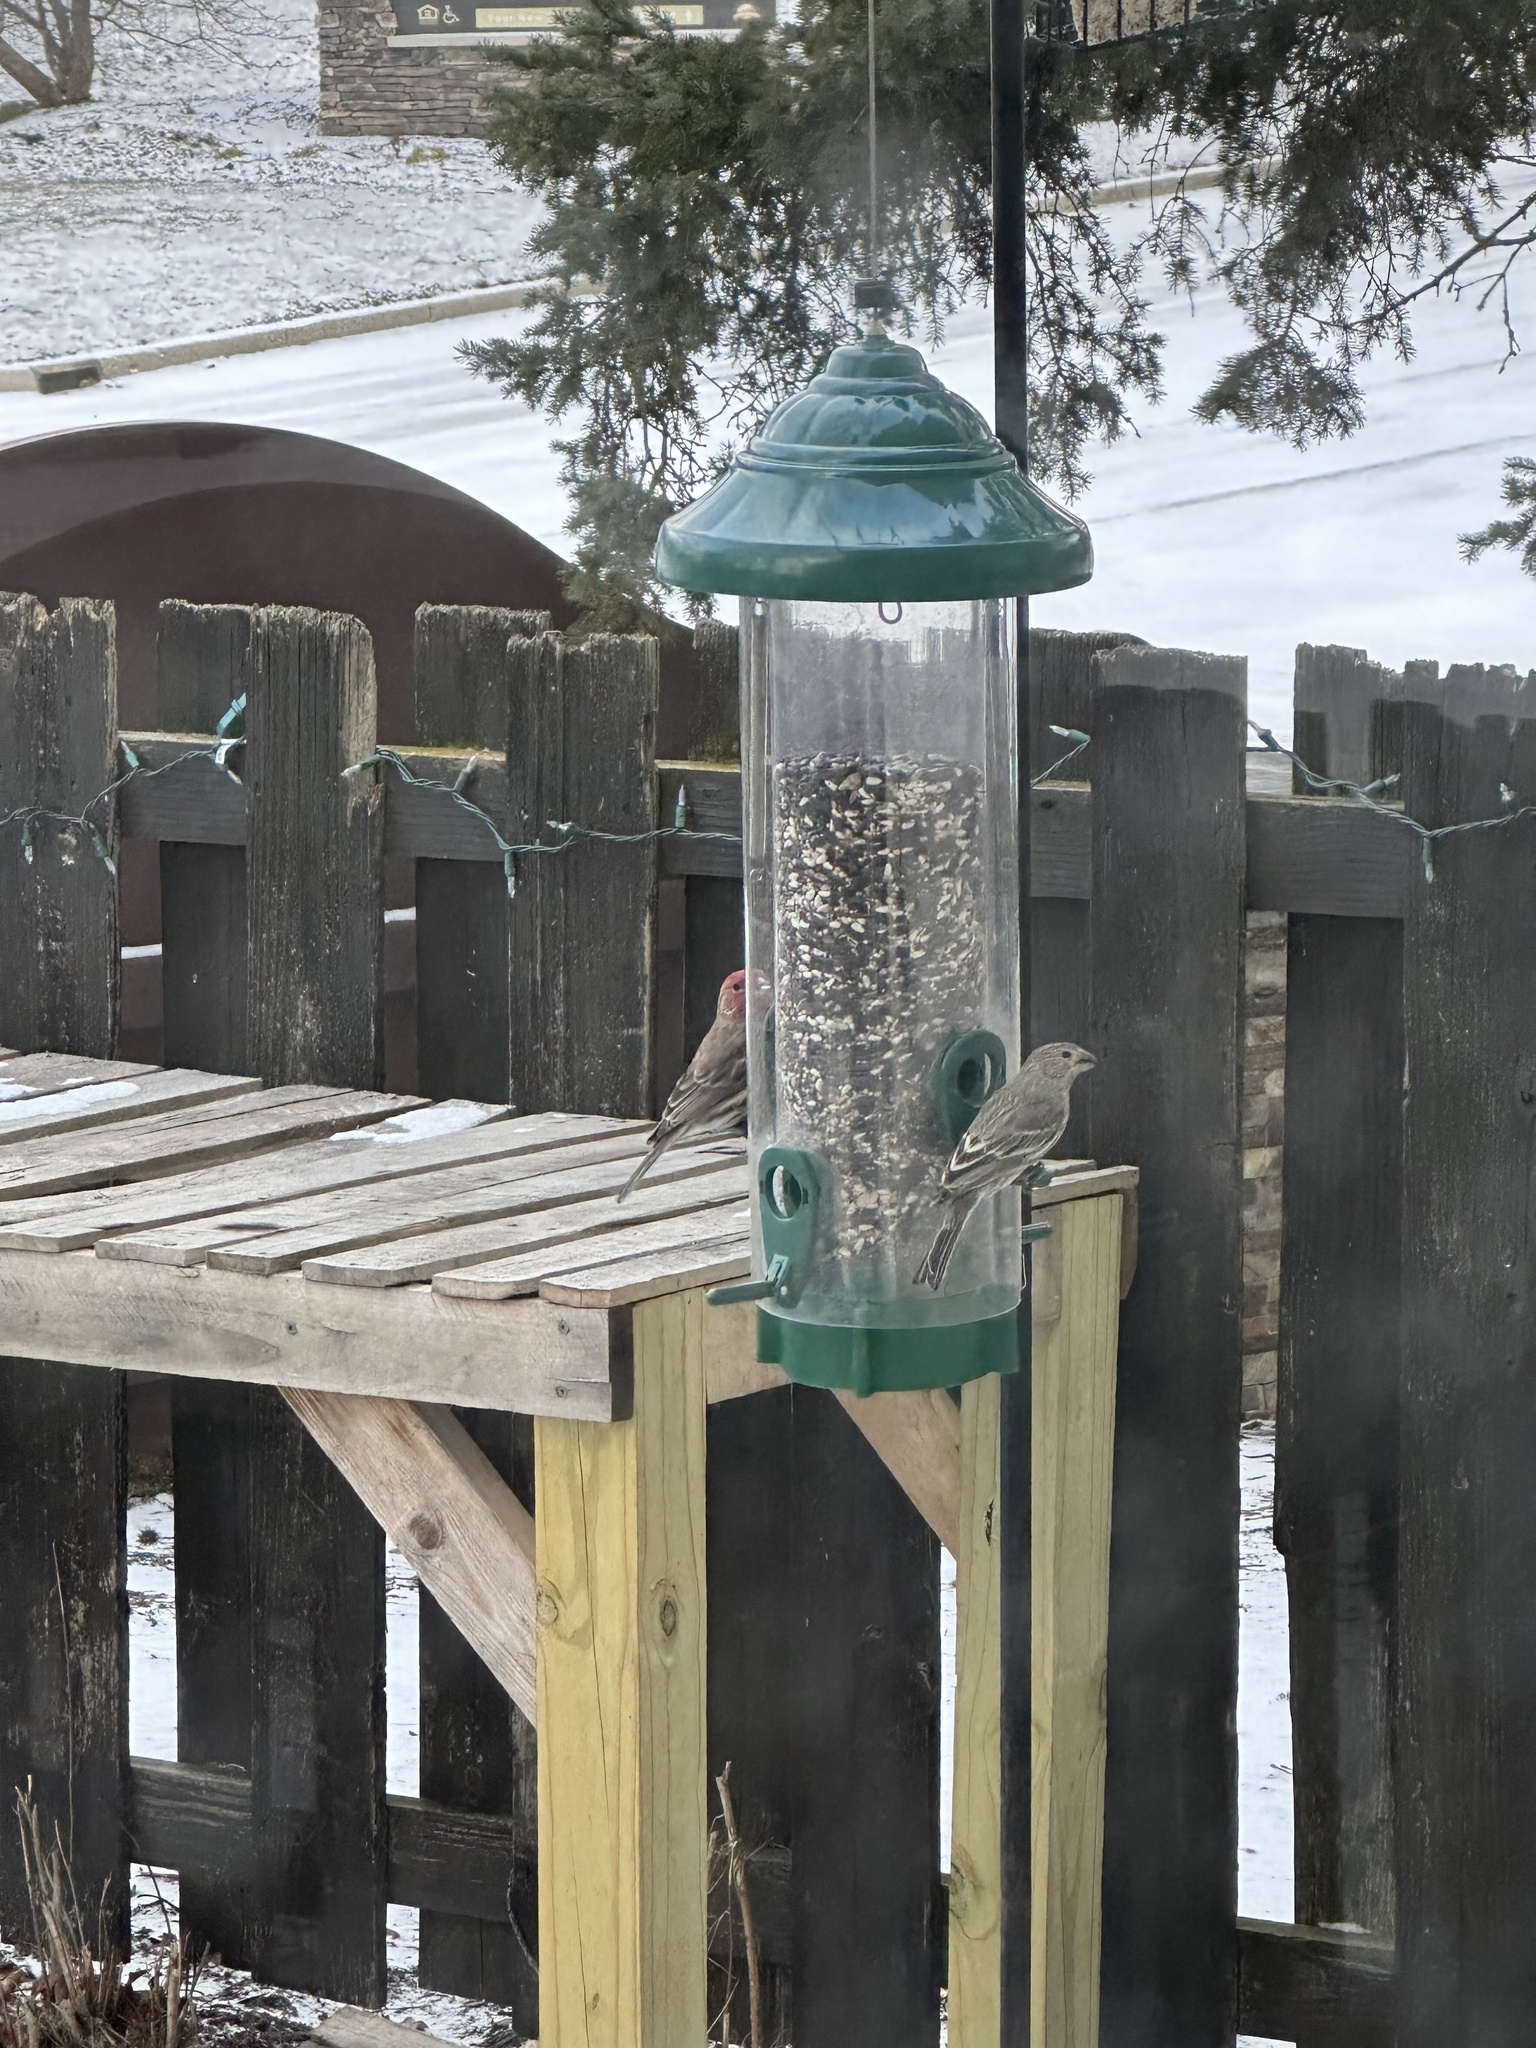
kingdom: Animalia
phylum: Chordata
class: Aves
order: Passeriformes
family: Fringillidae
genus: Haemorhous
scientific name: Haemorhous mexicanus
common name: House finch
